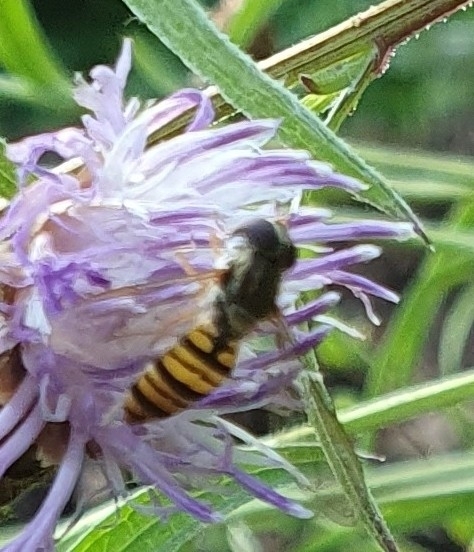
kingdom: Animalia
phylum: Arthropoda
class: Insecta
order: Diptera
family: Syrphidae
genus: Episyrphus
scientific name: Episyrphus balteatus
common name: Marmalade hoverfly
